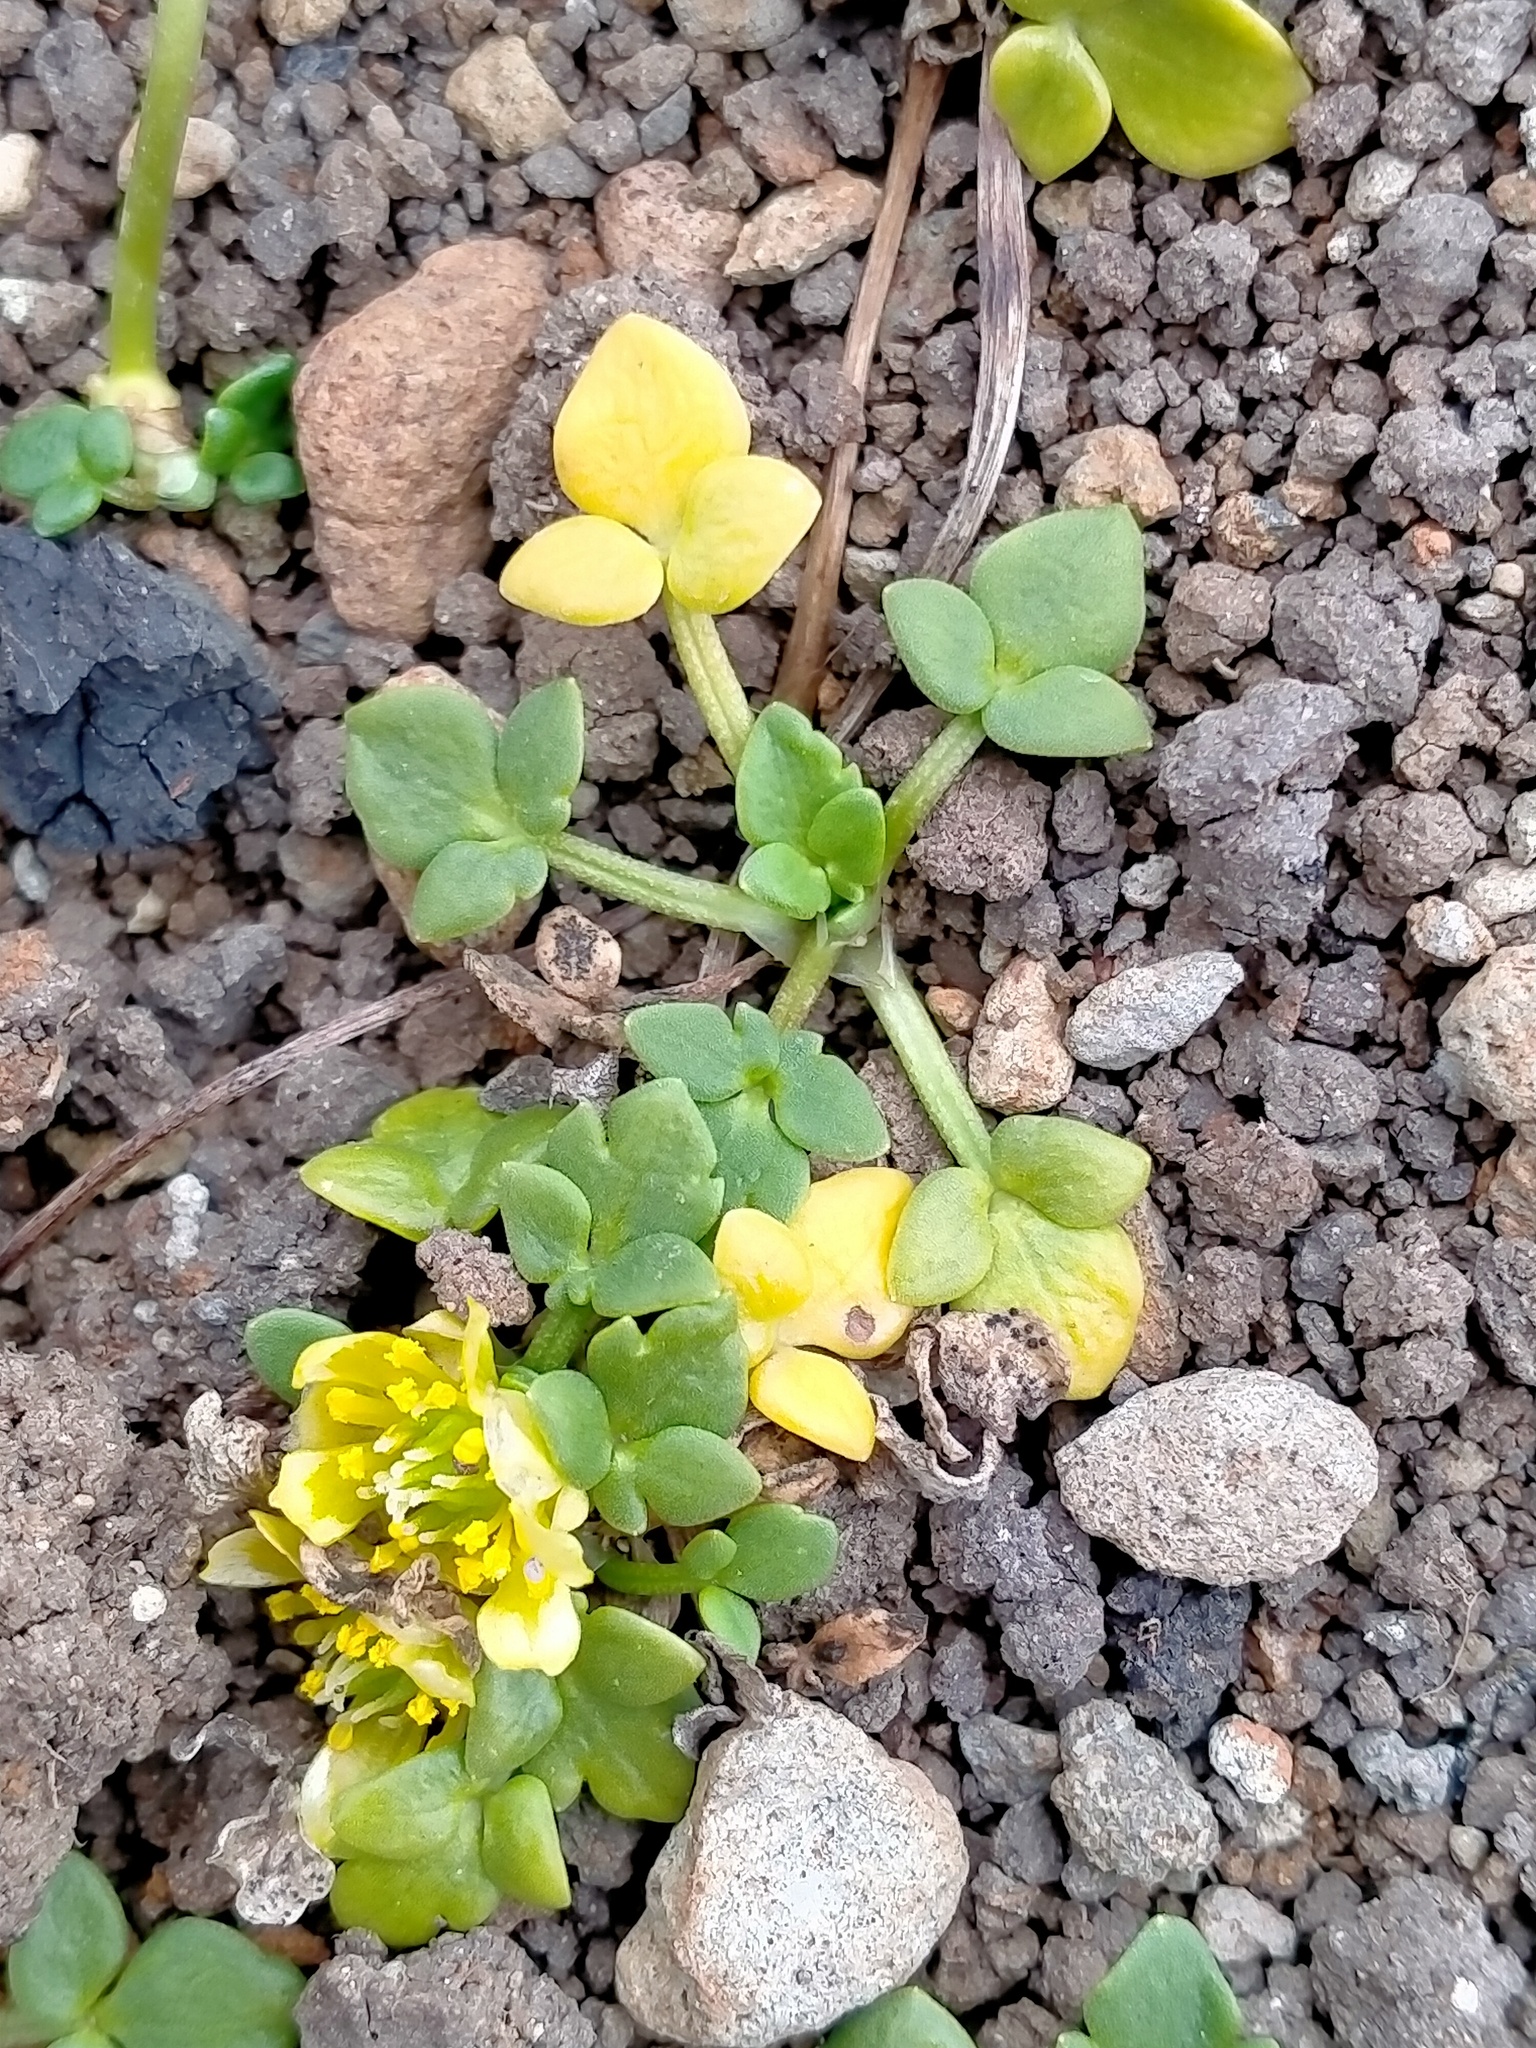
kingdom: Plantae
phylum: Tracheophyta
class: Magnoliopsida
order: Ranunculales
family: Ranunculaceae
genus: Ranunculus
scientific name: Ranunculus acaulis
